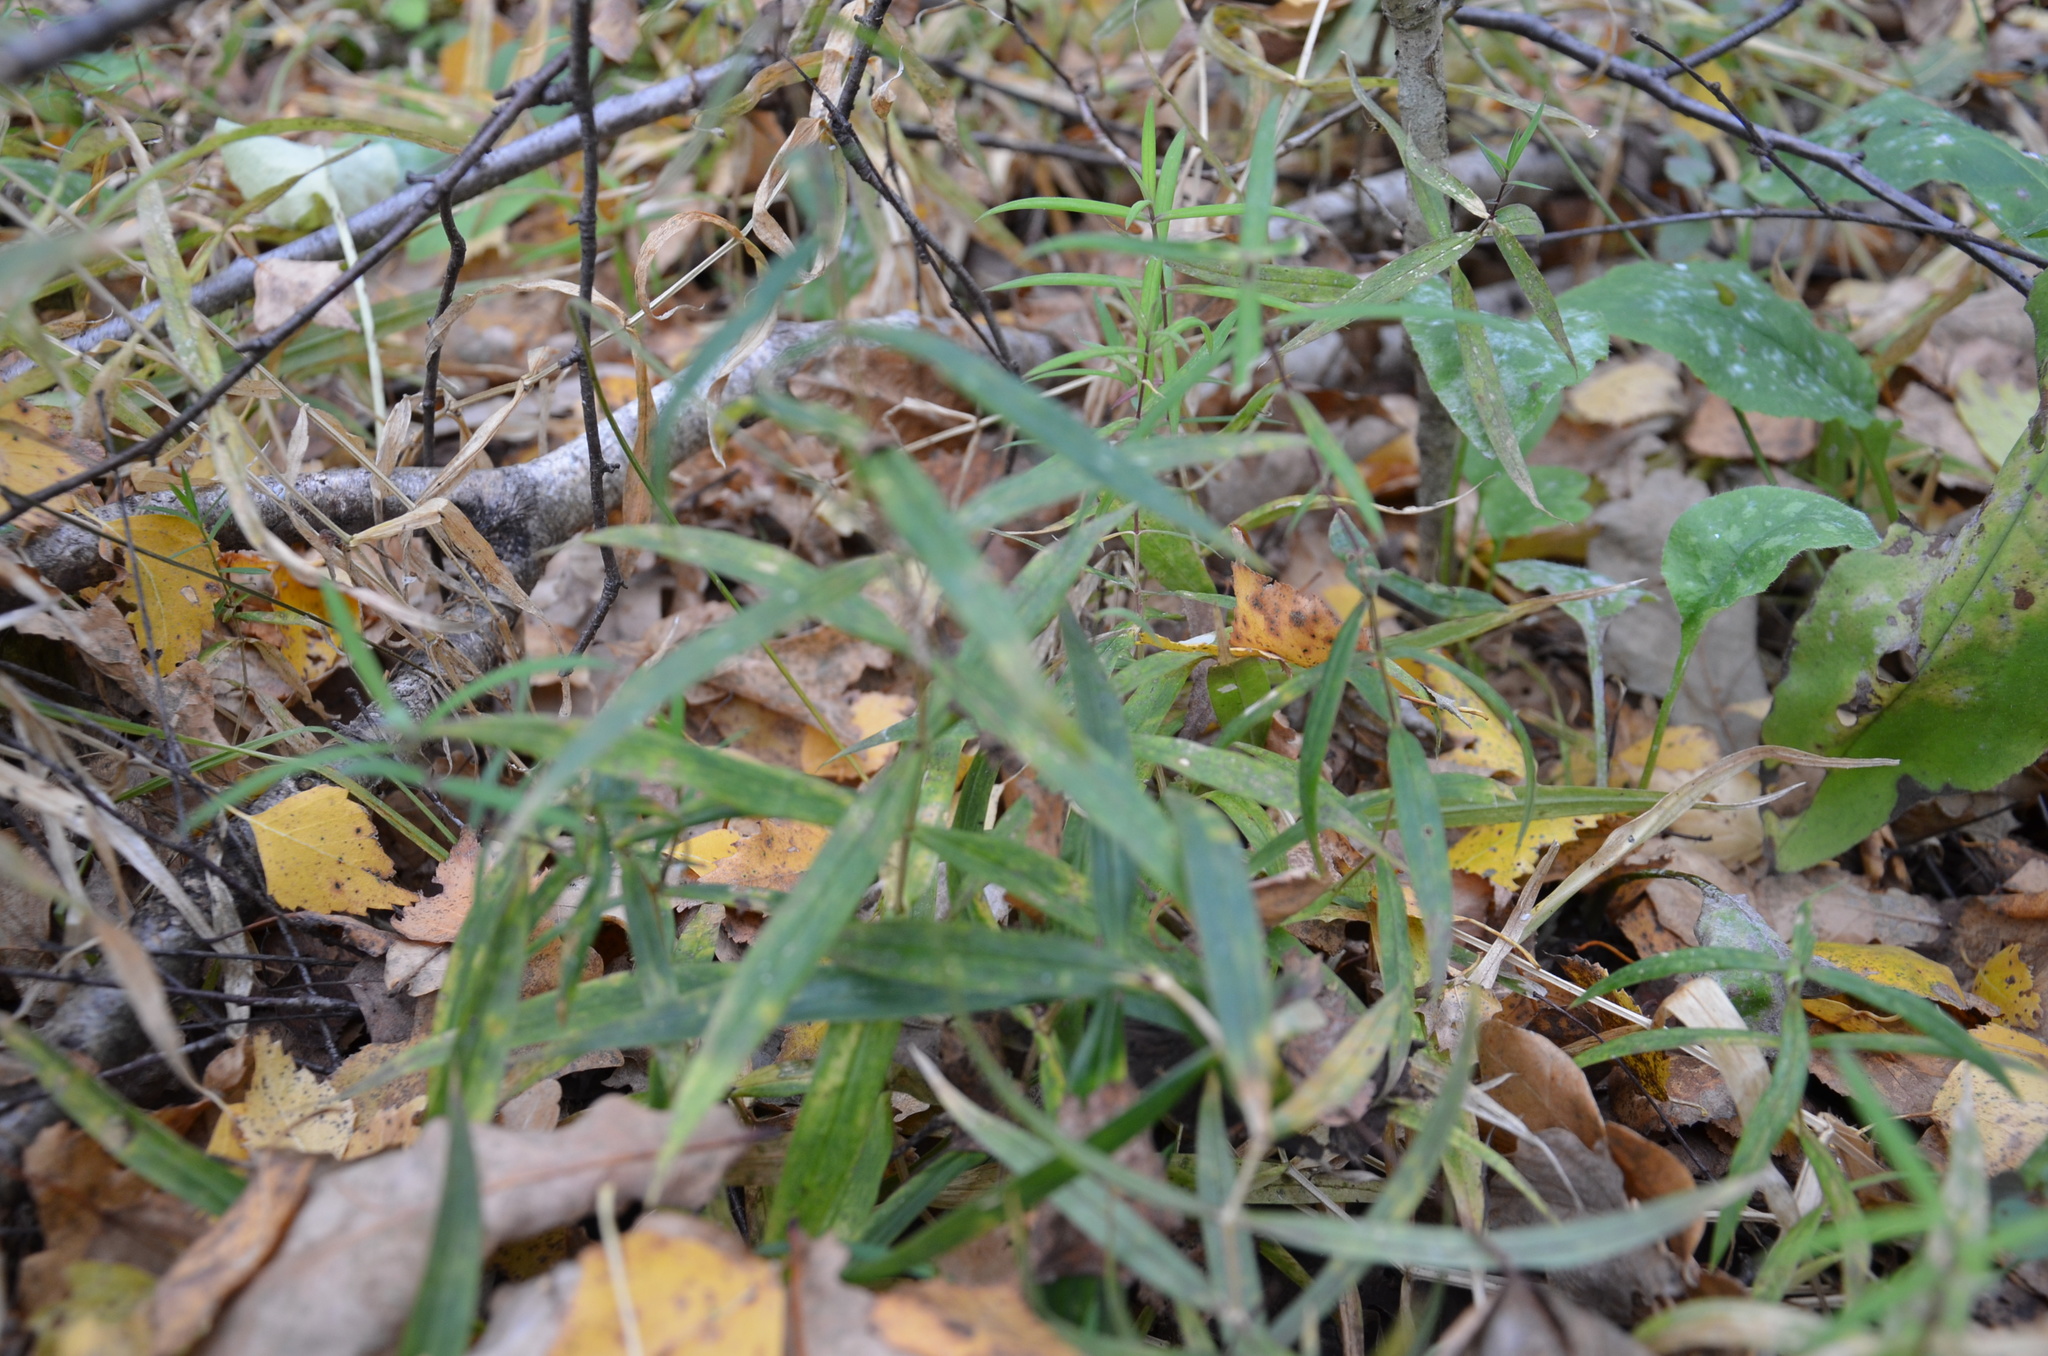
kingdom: Plantae
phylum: Tracheophyta
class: Magnoliopsida
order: Caryophyllales
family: Caryophyllaceae
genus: Rabelera
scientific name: Rabelera holostea
